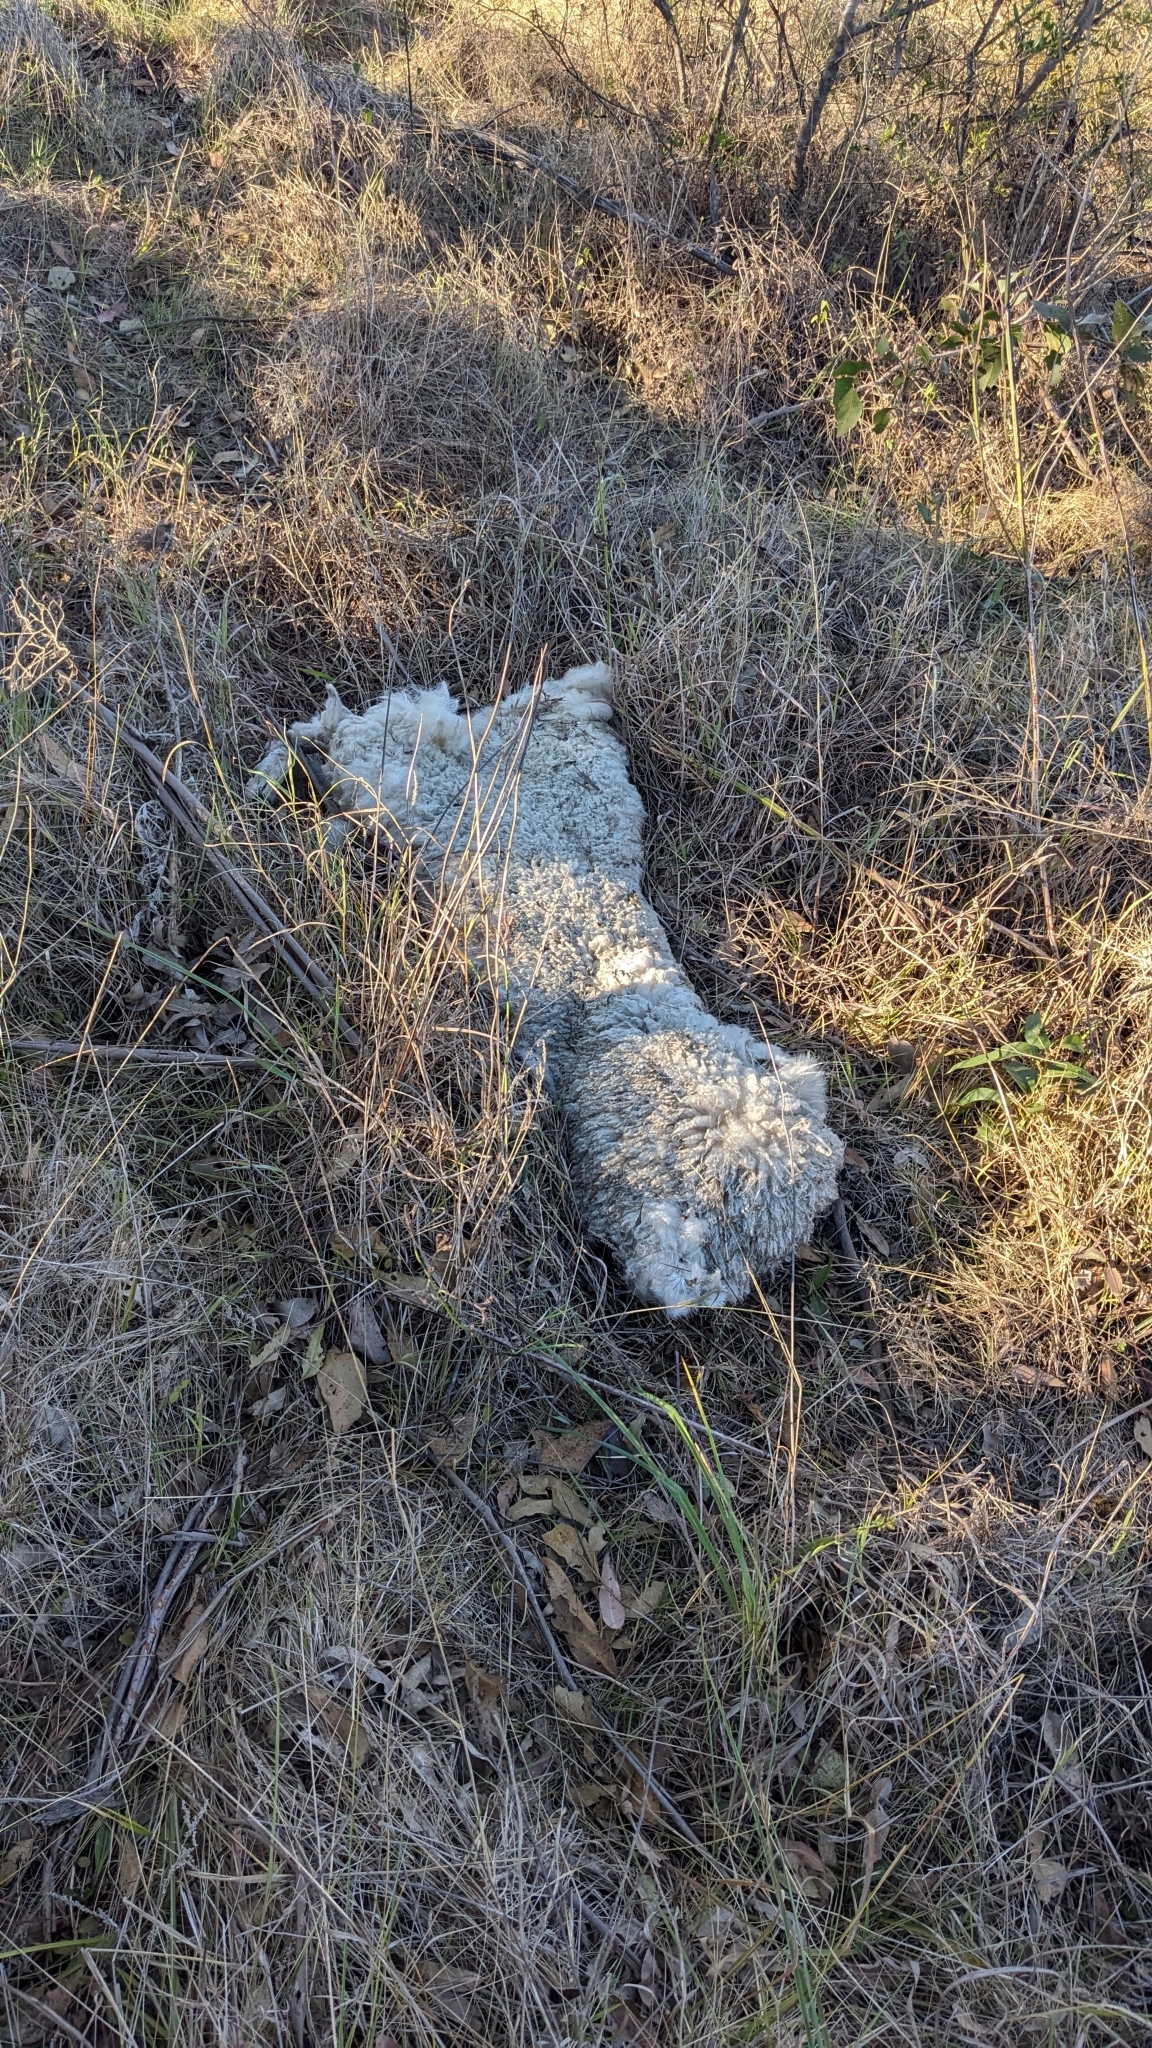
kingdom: Animalia
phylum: Chordata
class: Mammalia
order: Artiodactyla
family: Bovidae
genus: Ovis
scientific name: Ovis aries
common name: Domestic sheep
